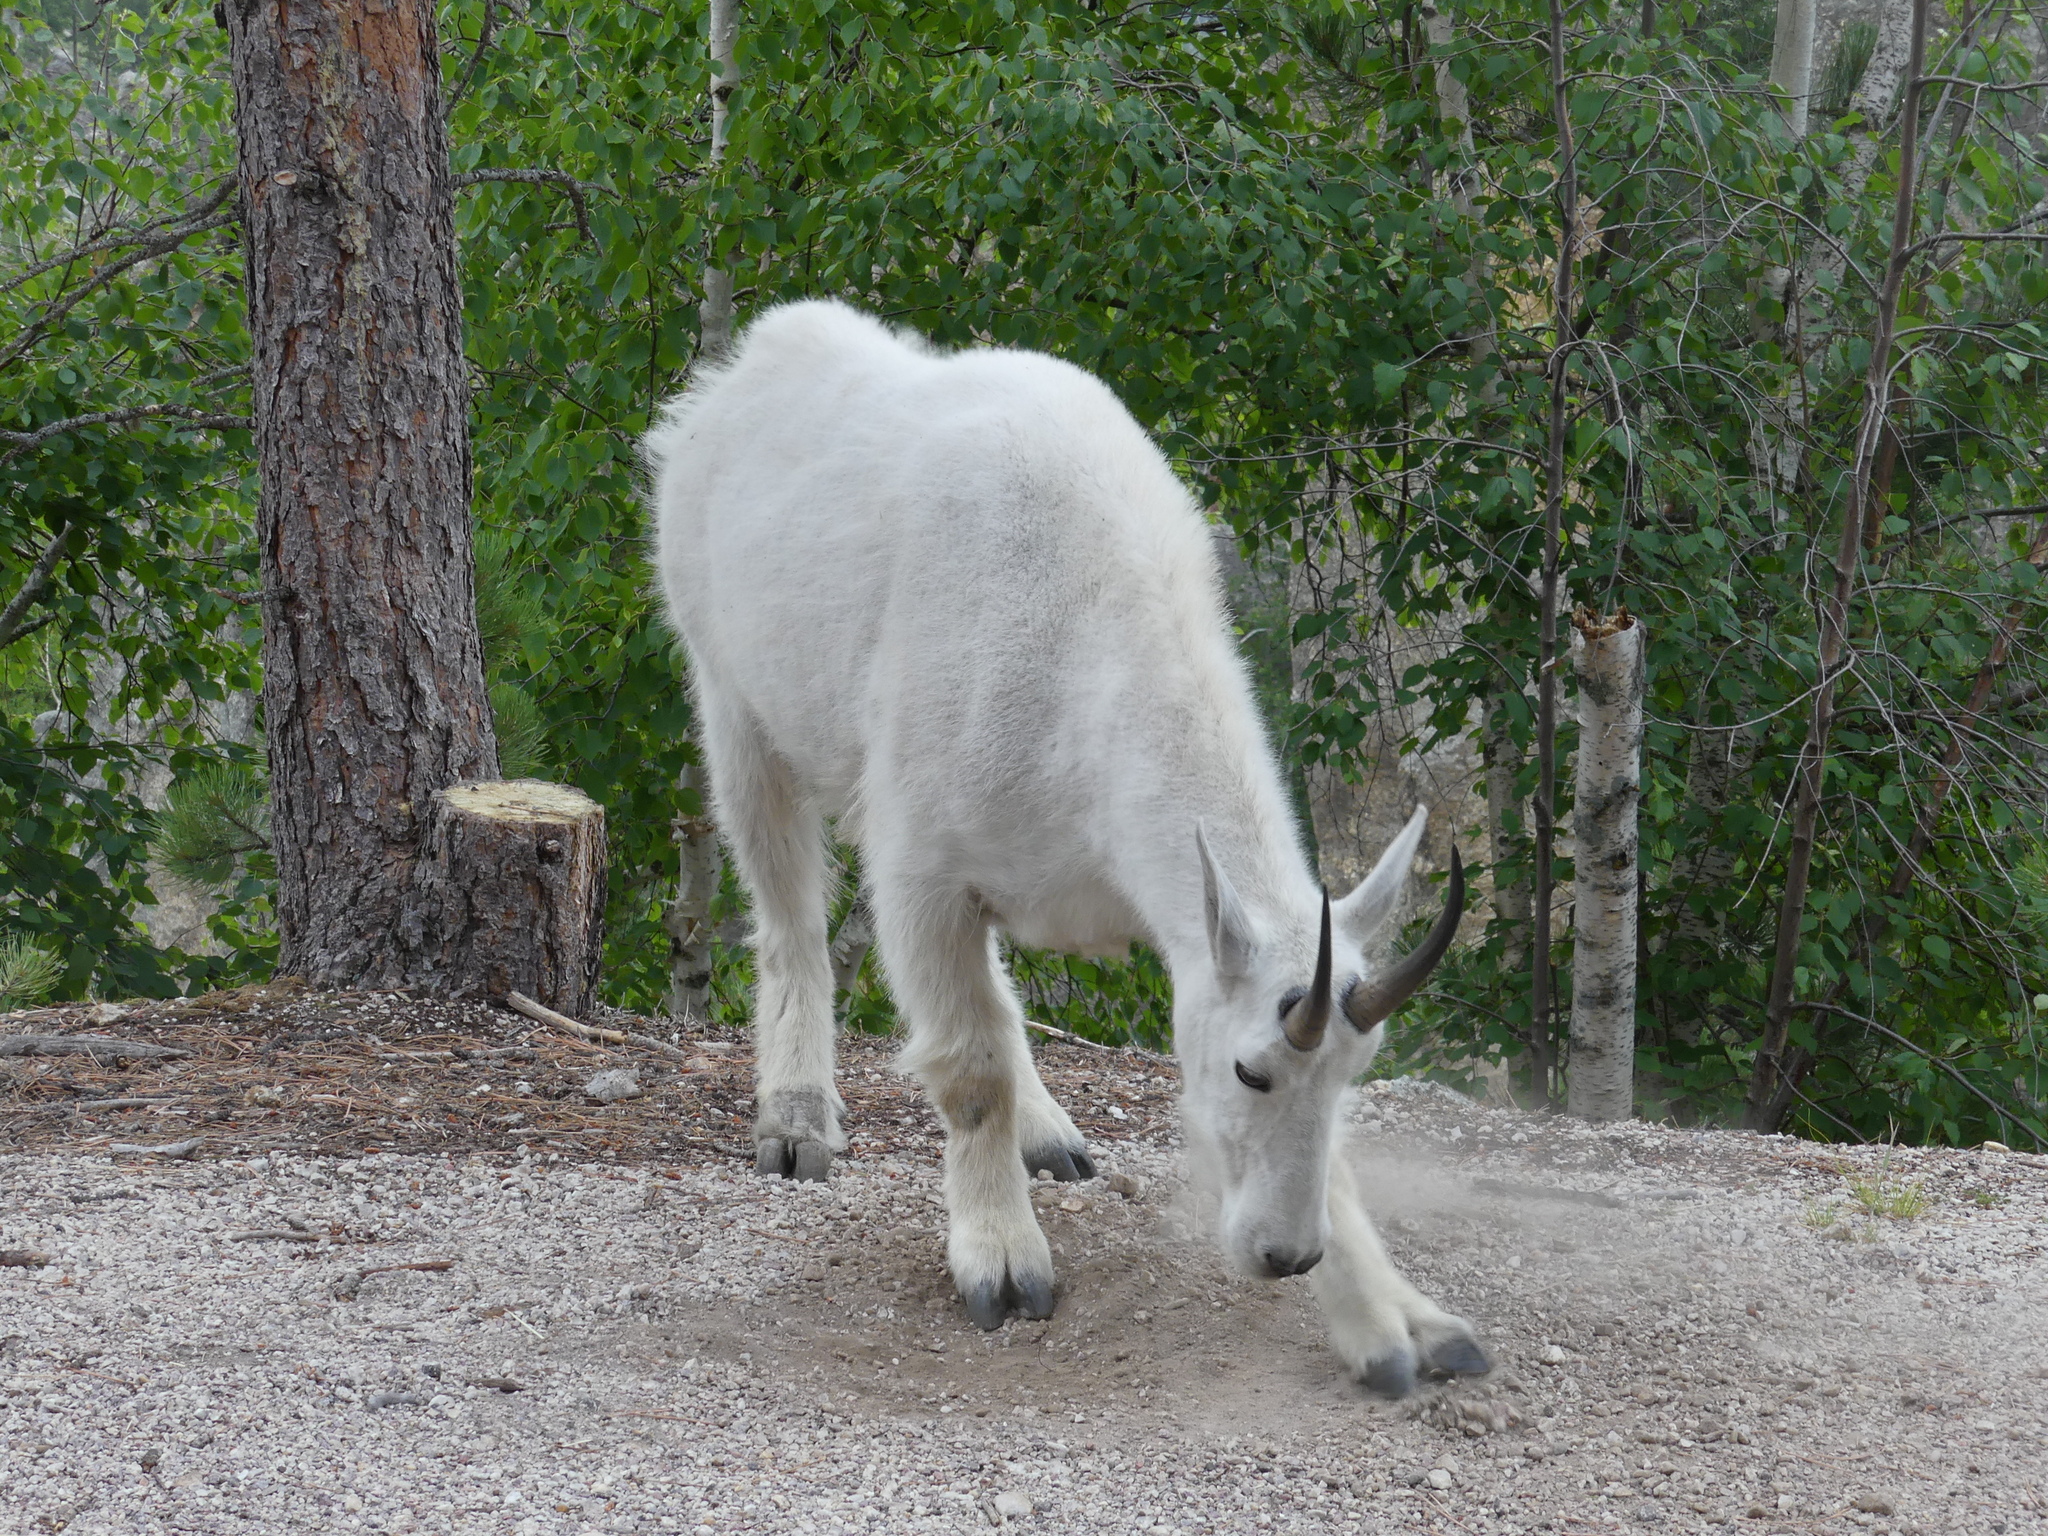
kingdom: Animalia
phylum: Chordata
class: Mammalia
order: Artiodactyla
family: Bovidae
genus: Oreamnos
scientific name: Oreamnos americanus
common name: Mountain goat
